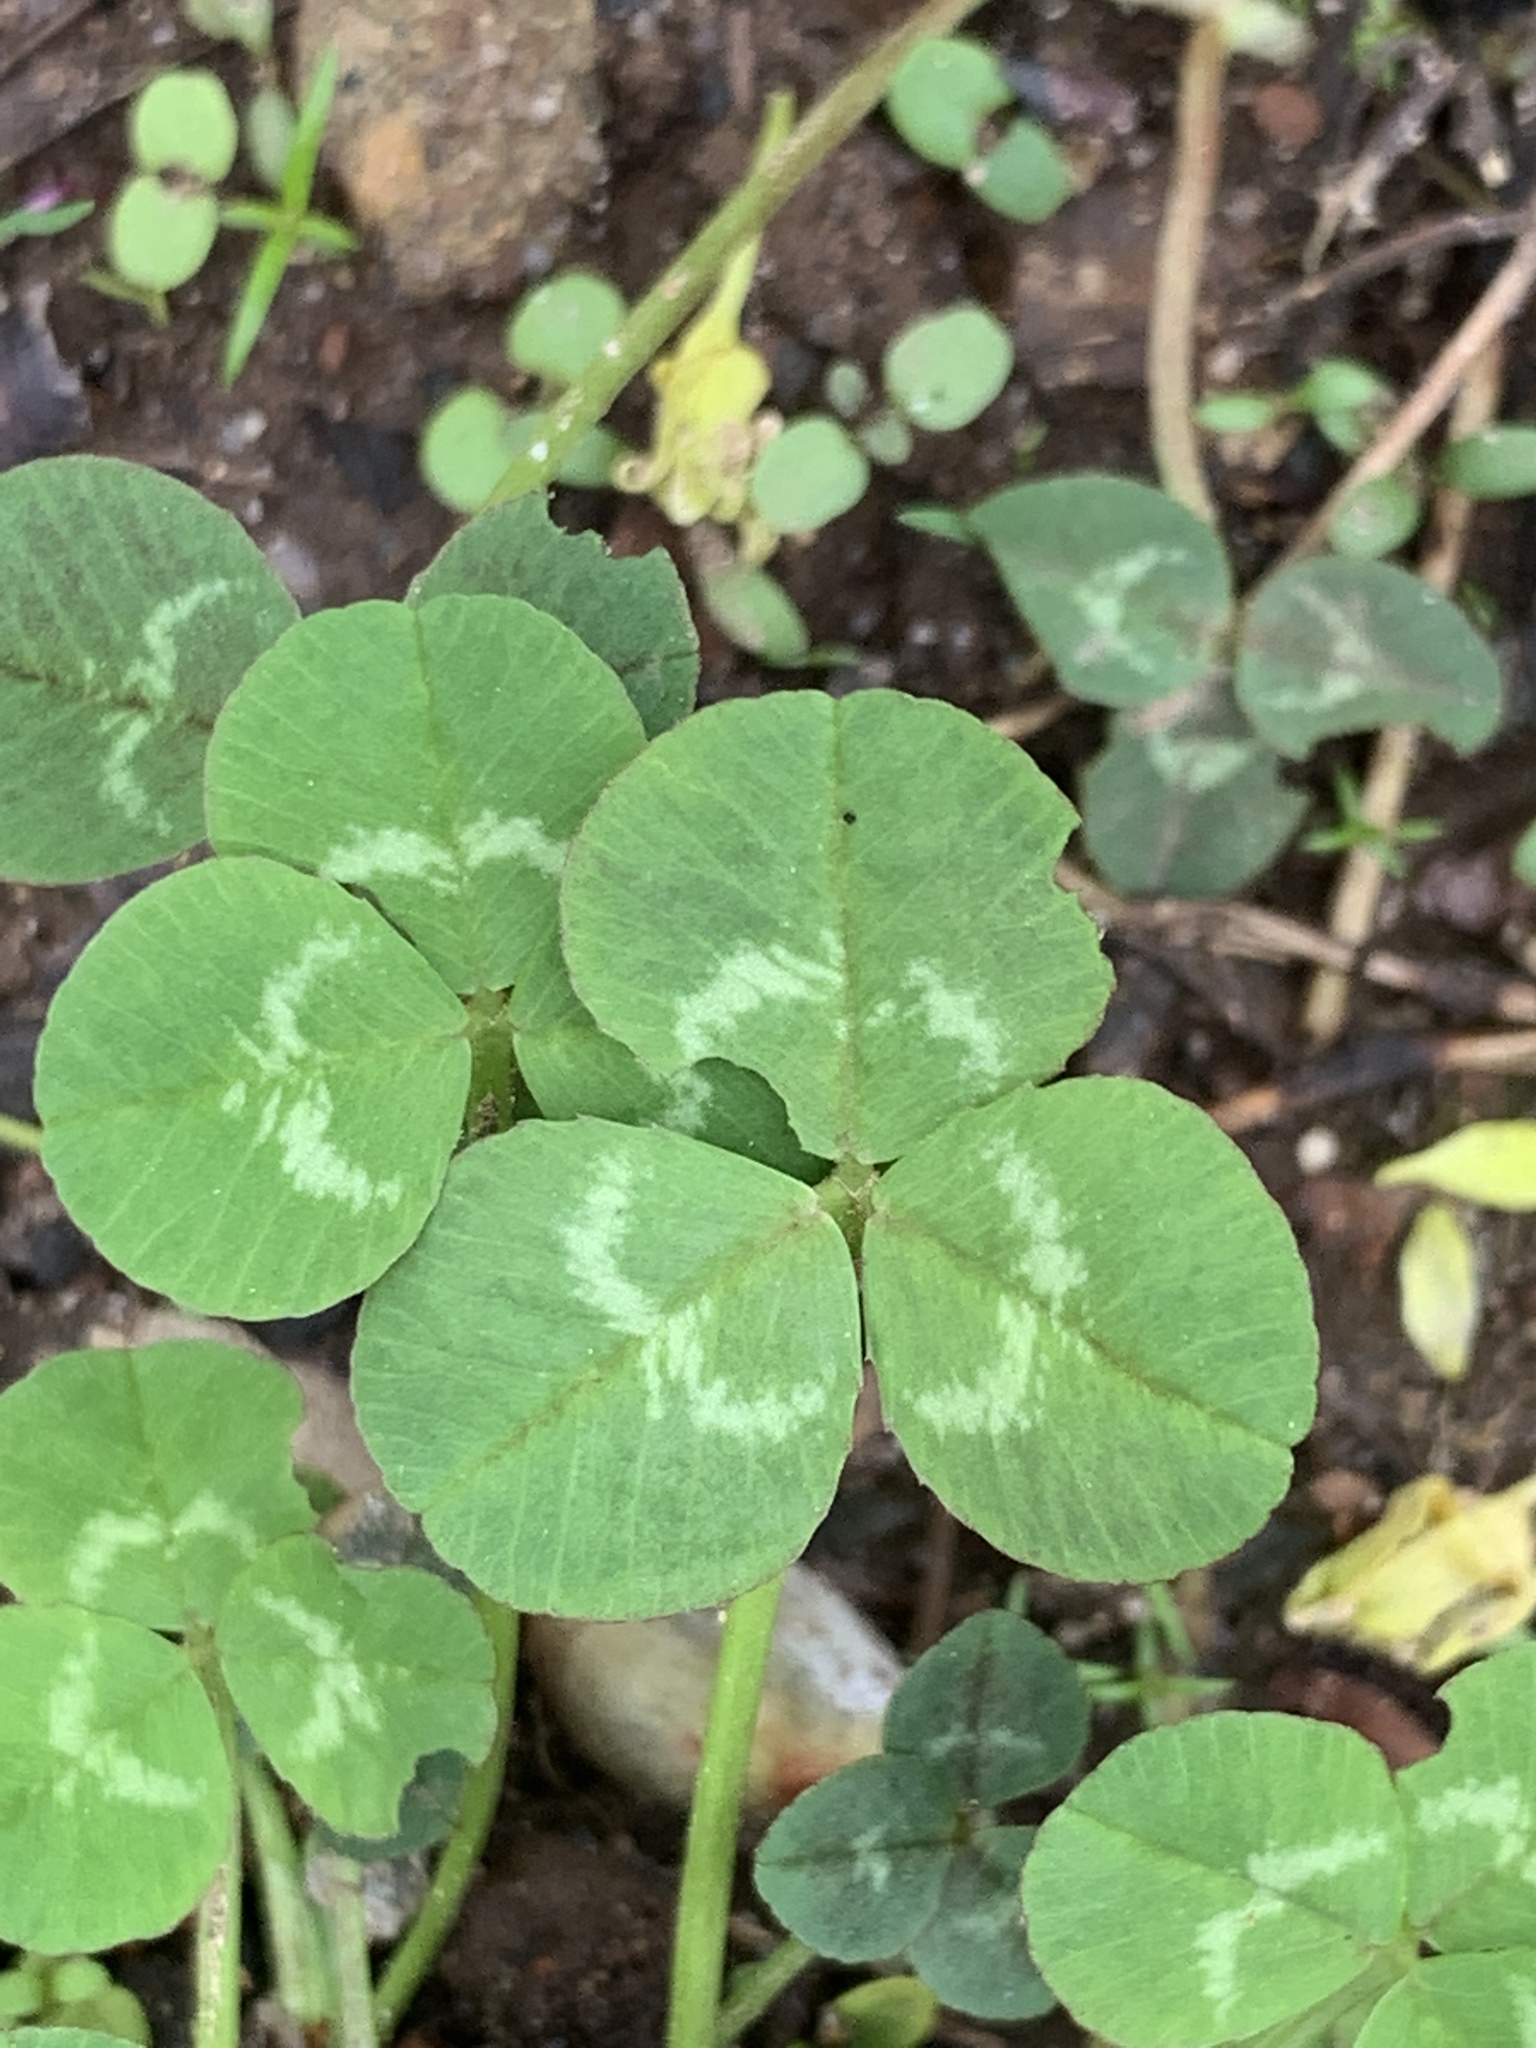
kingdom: Plantae
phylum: Tracheophyta
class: Magnoliopsida
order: Fabales
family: Fabaceae
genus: Trifolium
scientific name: Trifolium repens
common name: White clover
